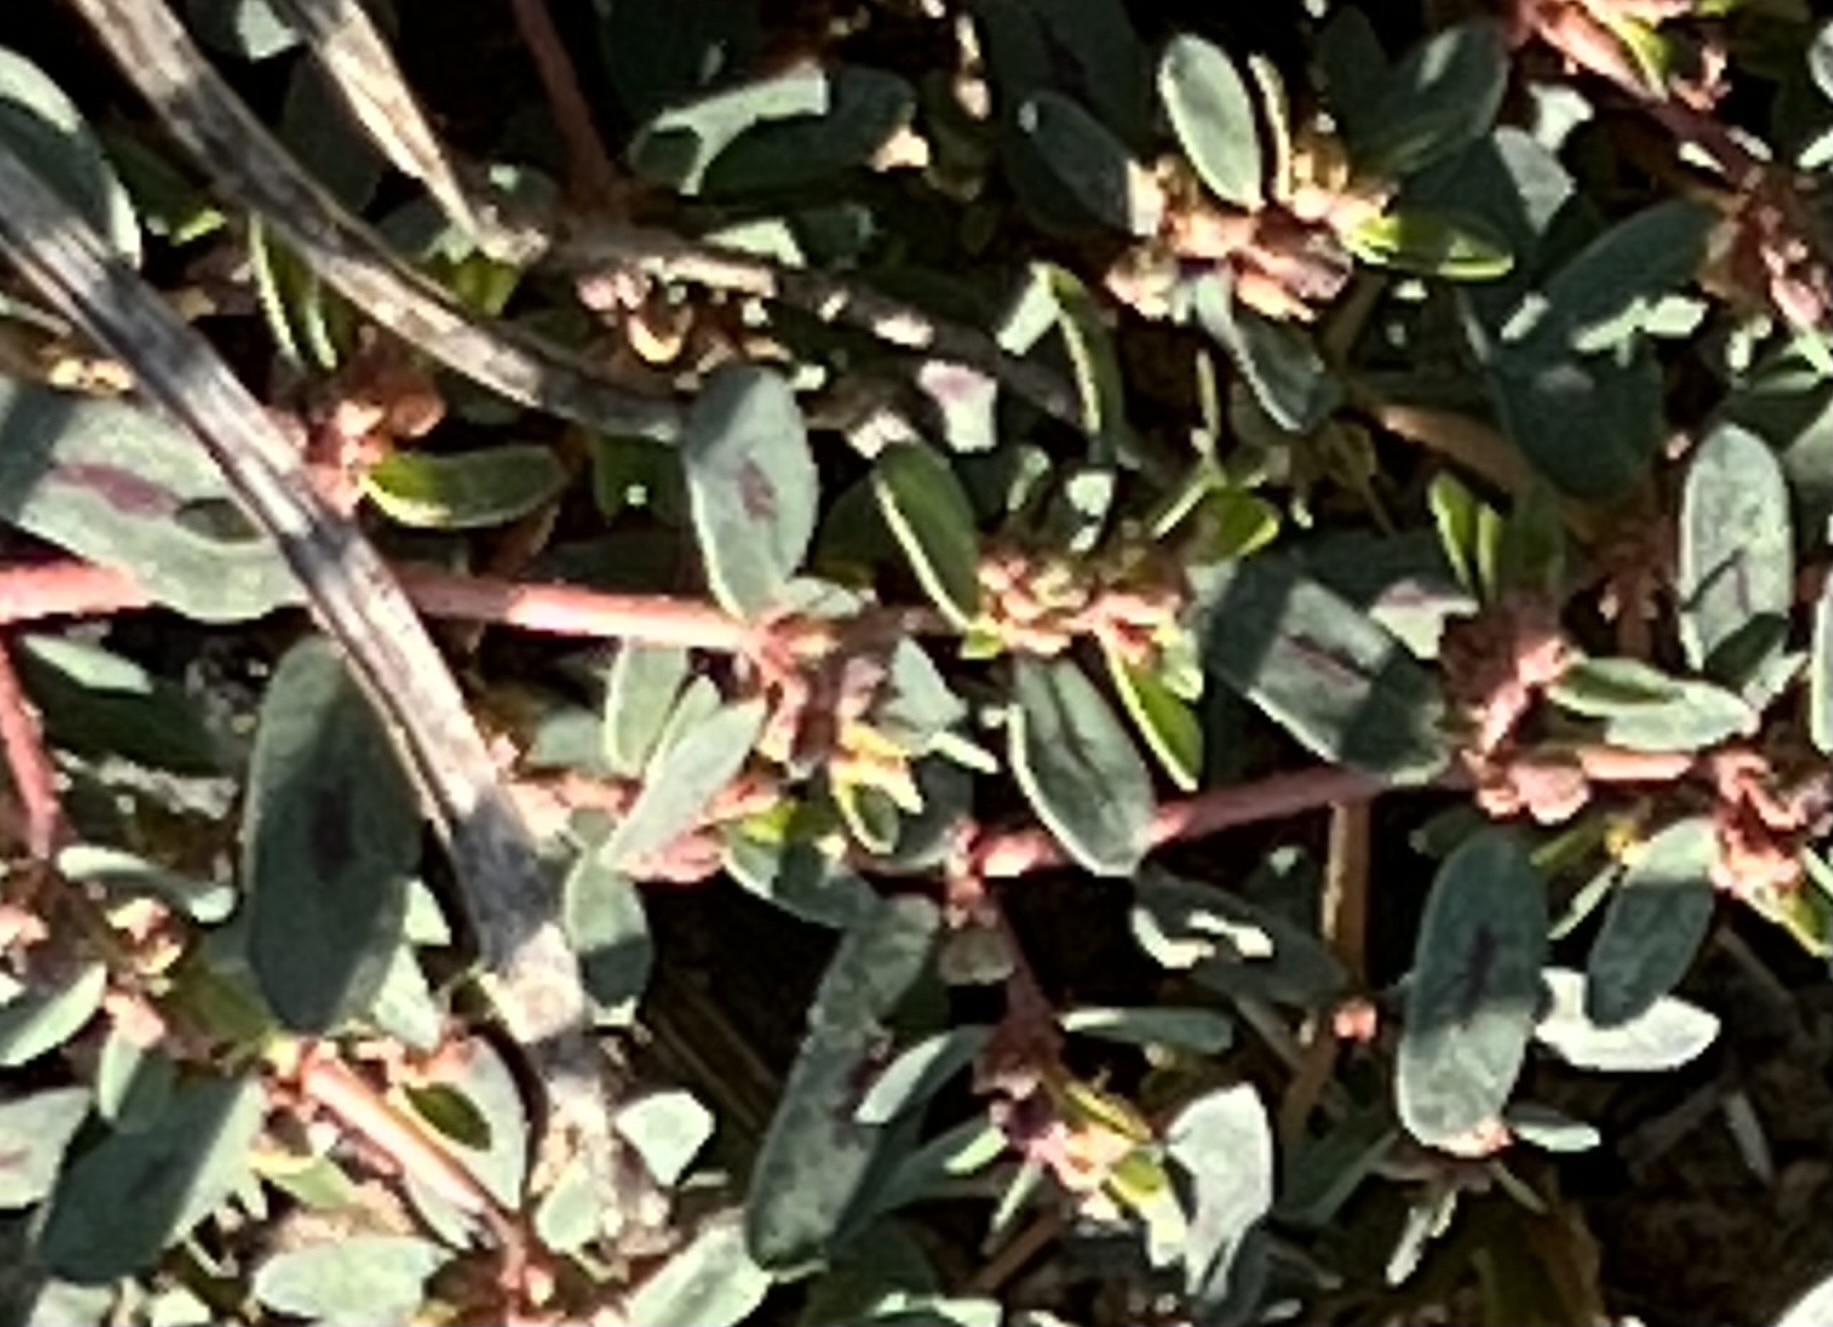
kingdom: Plantae
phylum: Tracheophyta
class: Magnoliopsida
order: Malpighiales
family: Euphorbiaceae
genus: Euphorbia
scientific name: Euphorbia maculata
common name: Spotted spurge
